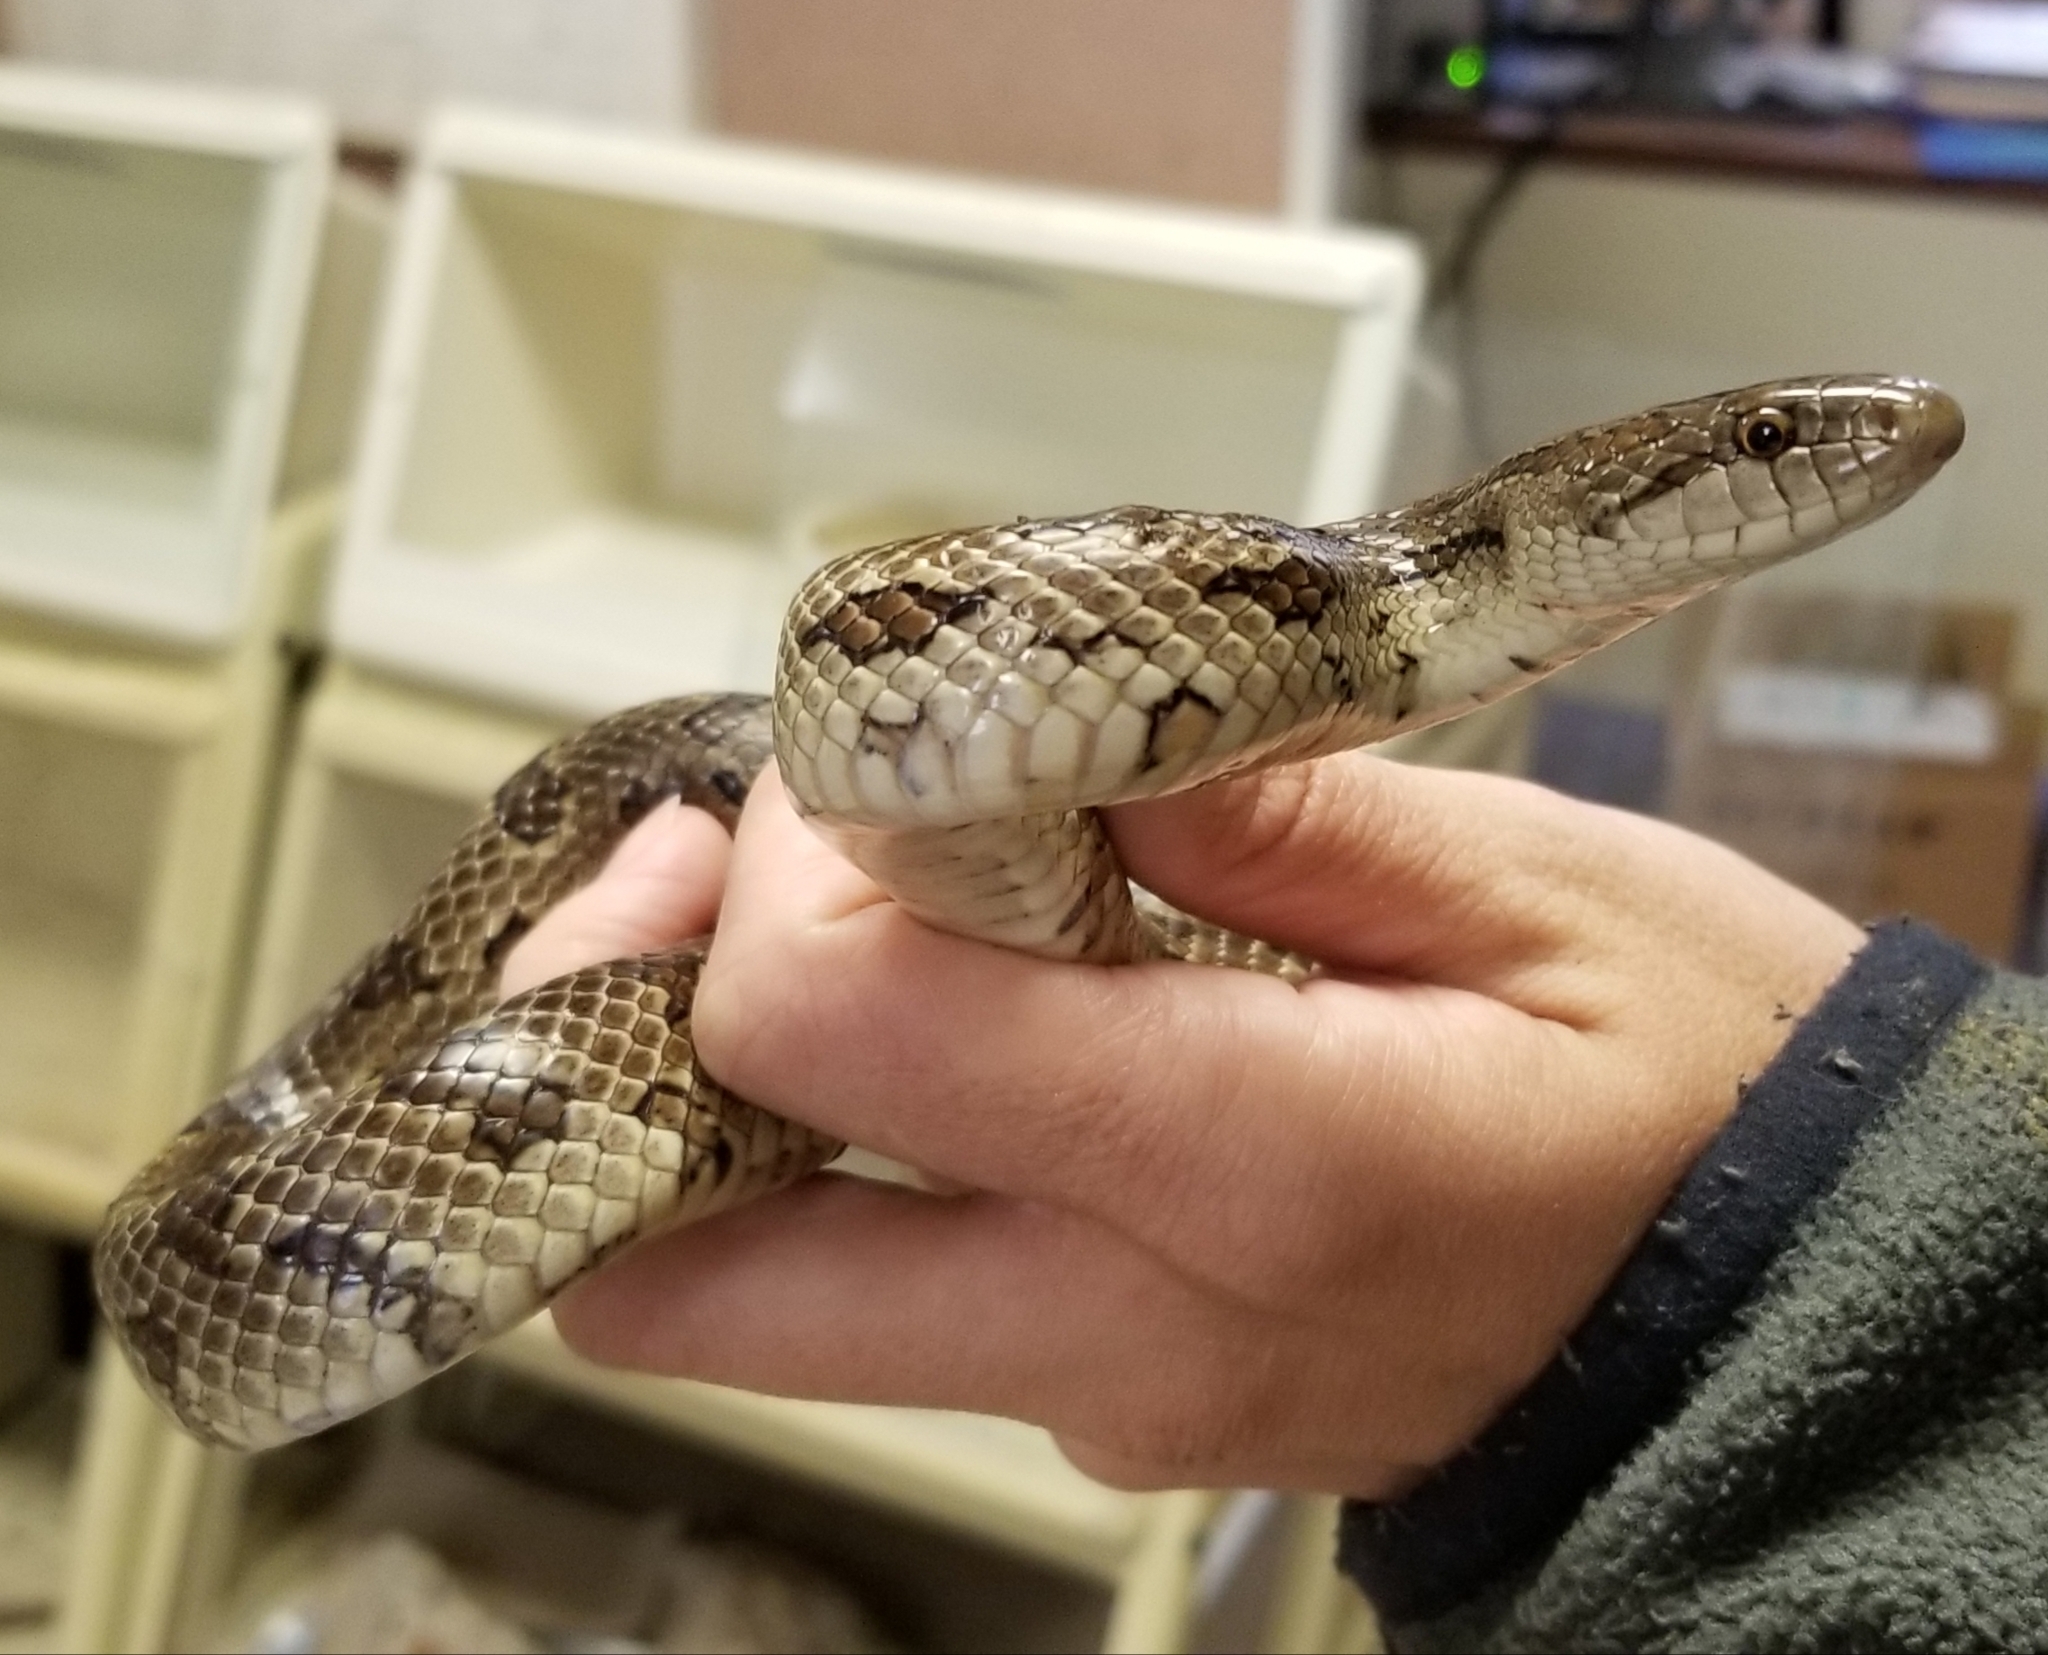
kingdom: Animalia
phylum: Chordata
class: Squamata
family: Colubridae
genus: Lampropeltis
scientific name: Lampropeltis calligaster
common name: Prairie kingsnake
